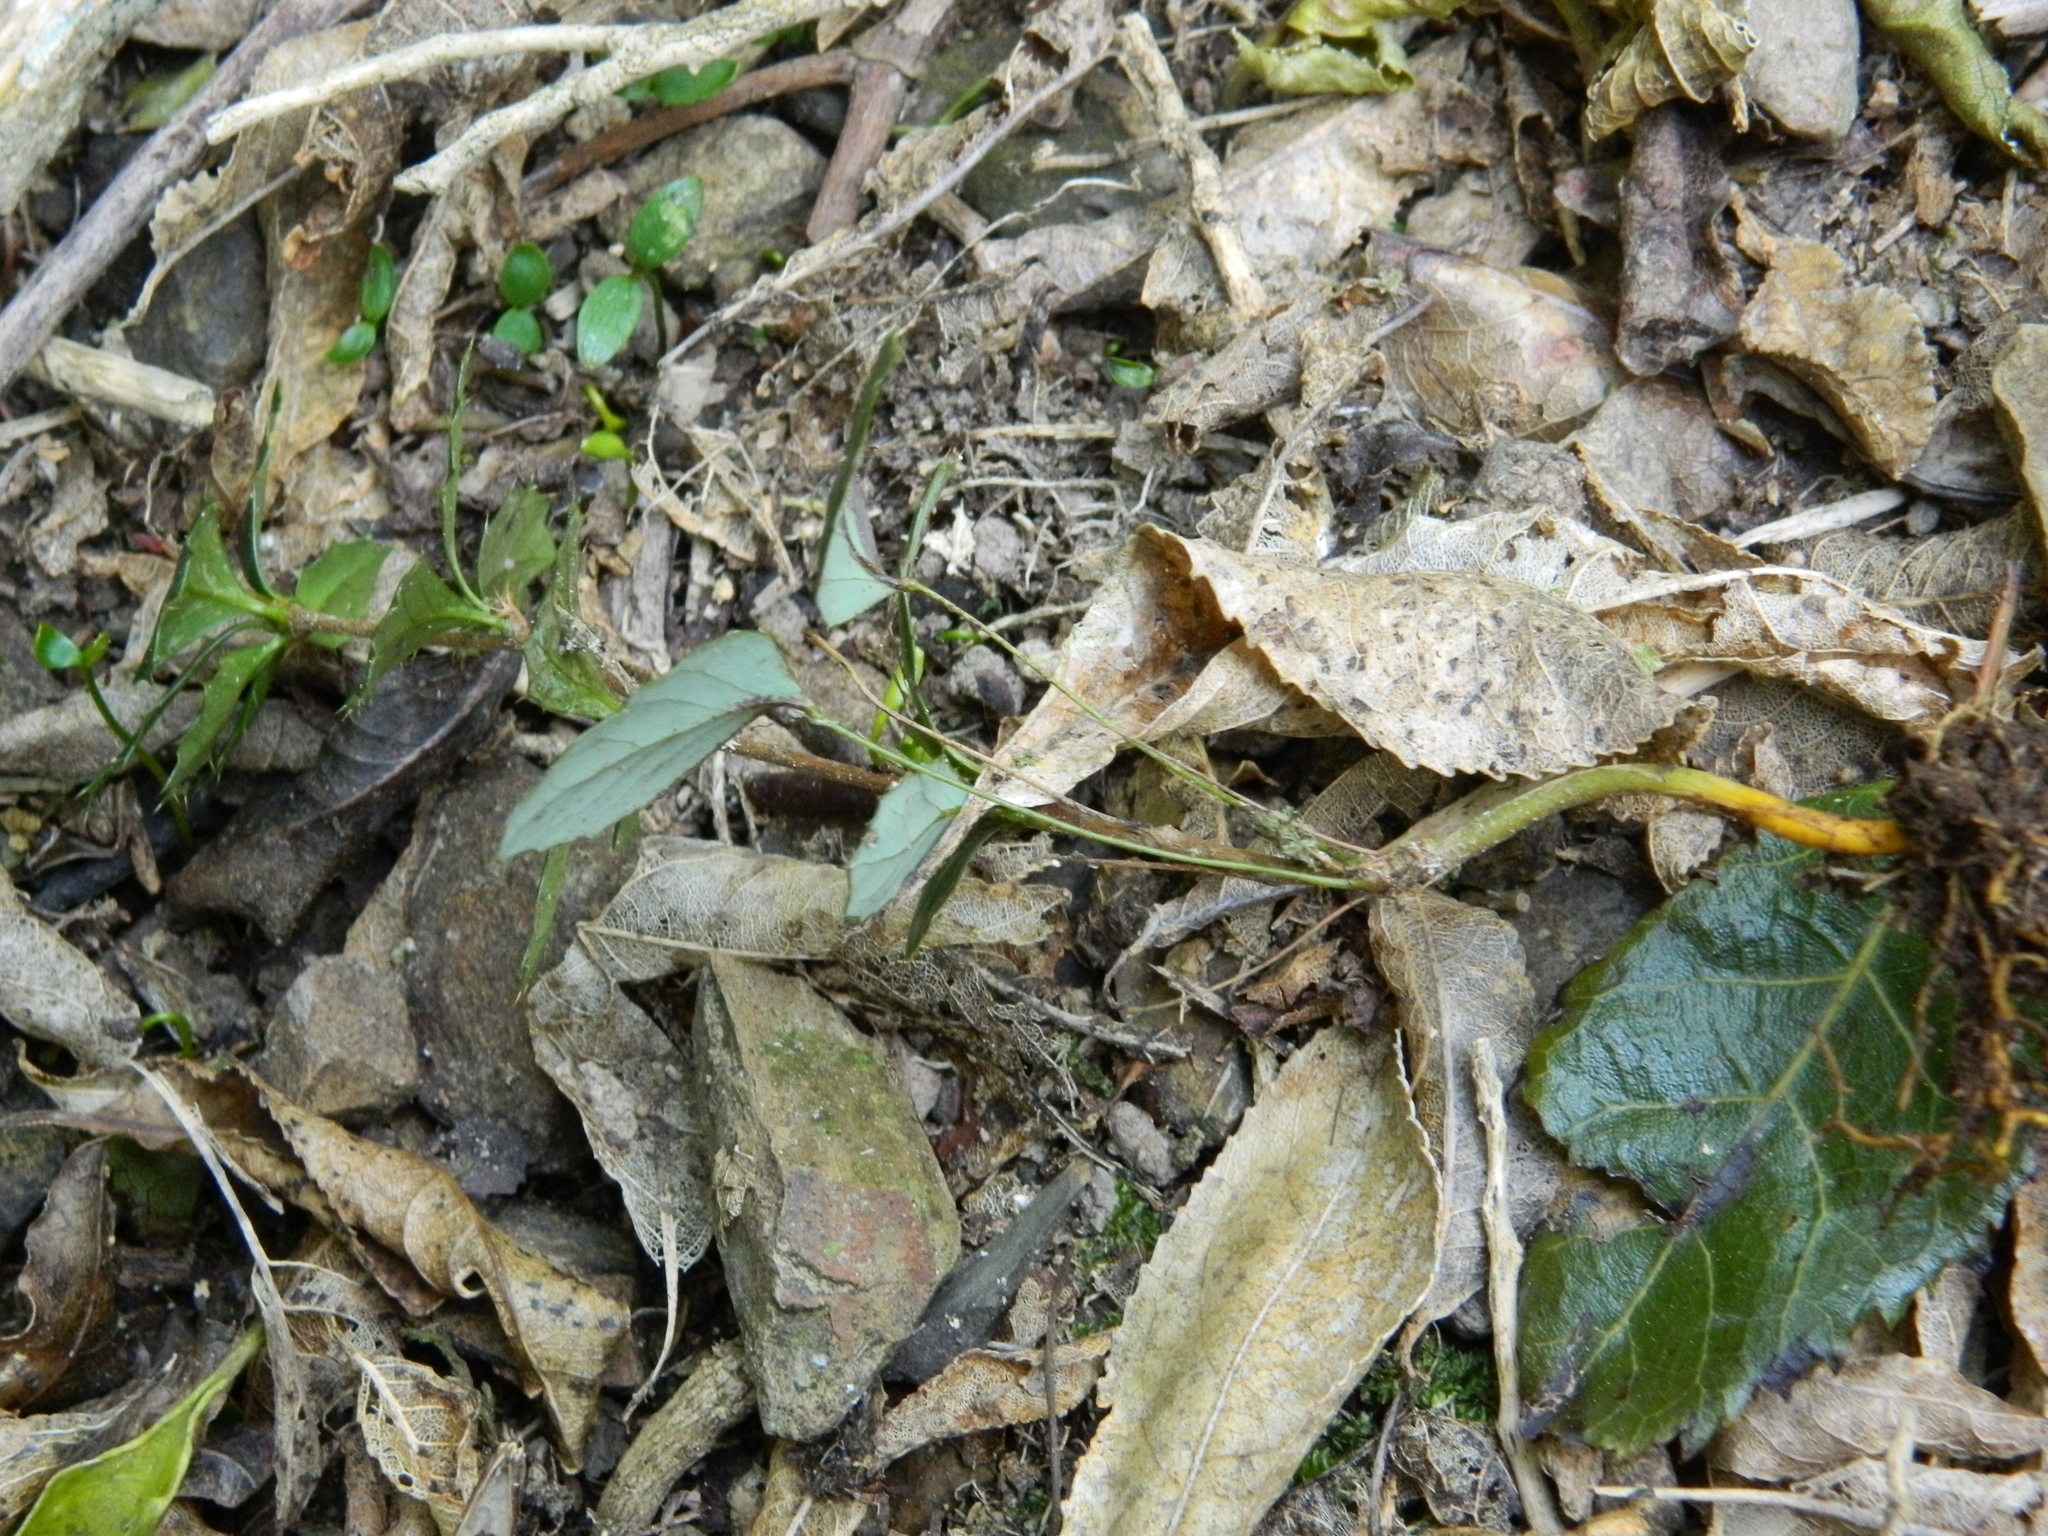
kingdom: Plantae
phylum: Tracheophyta
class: Magnoliopsida
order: Ranunculales
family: Berberidaceae
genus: Berberis
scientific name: Berberis darwinii
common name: Darwin's barberry
